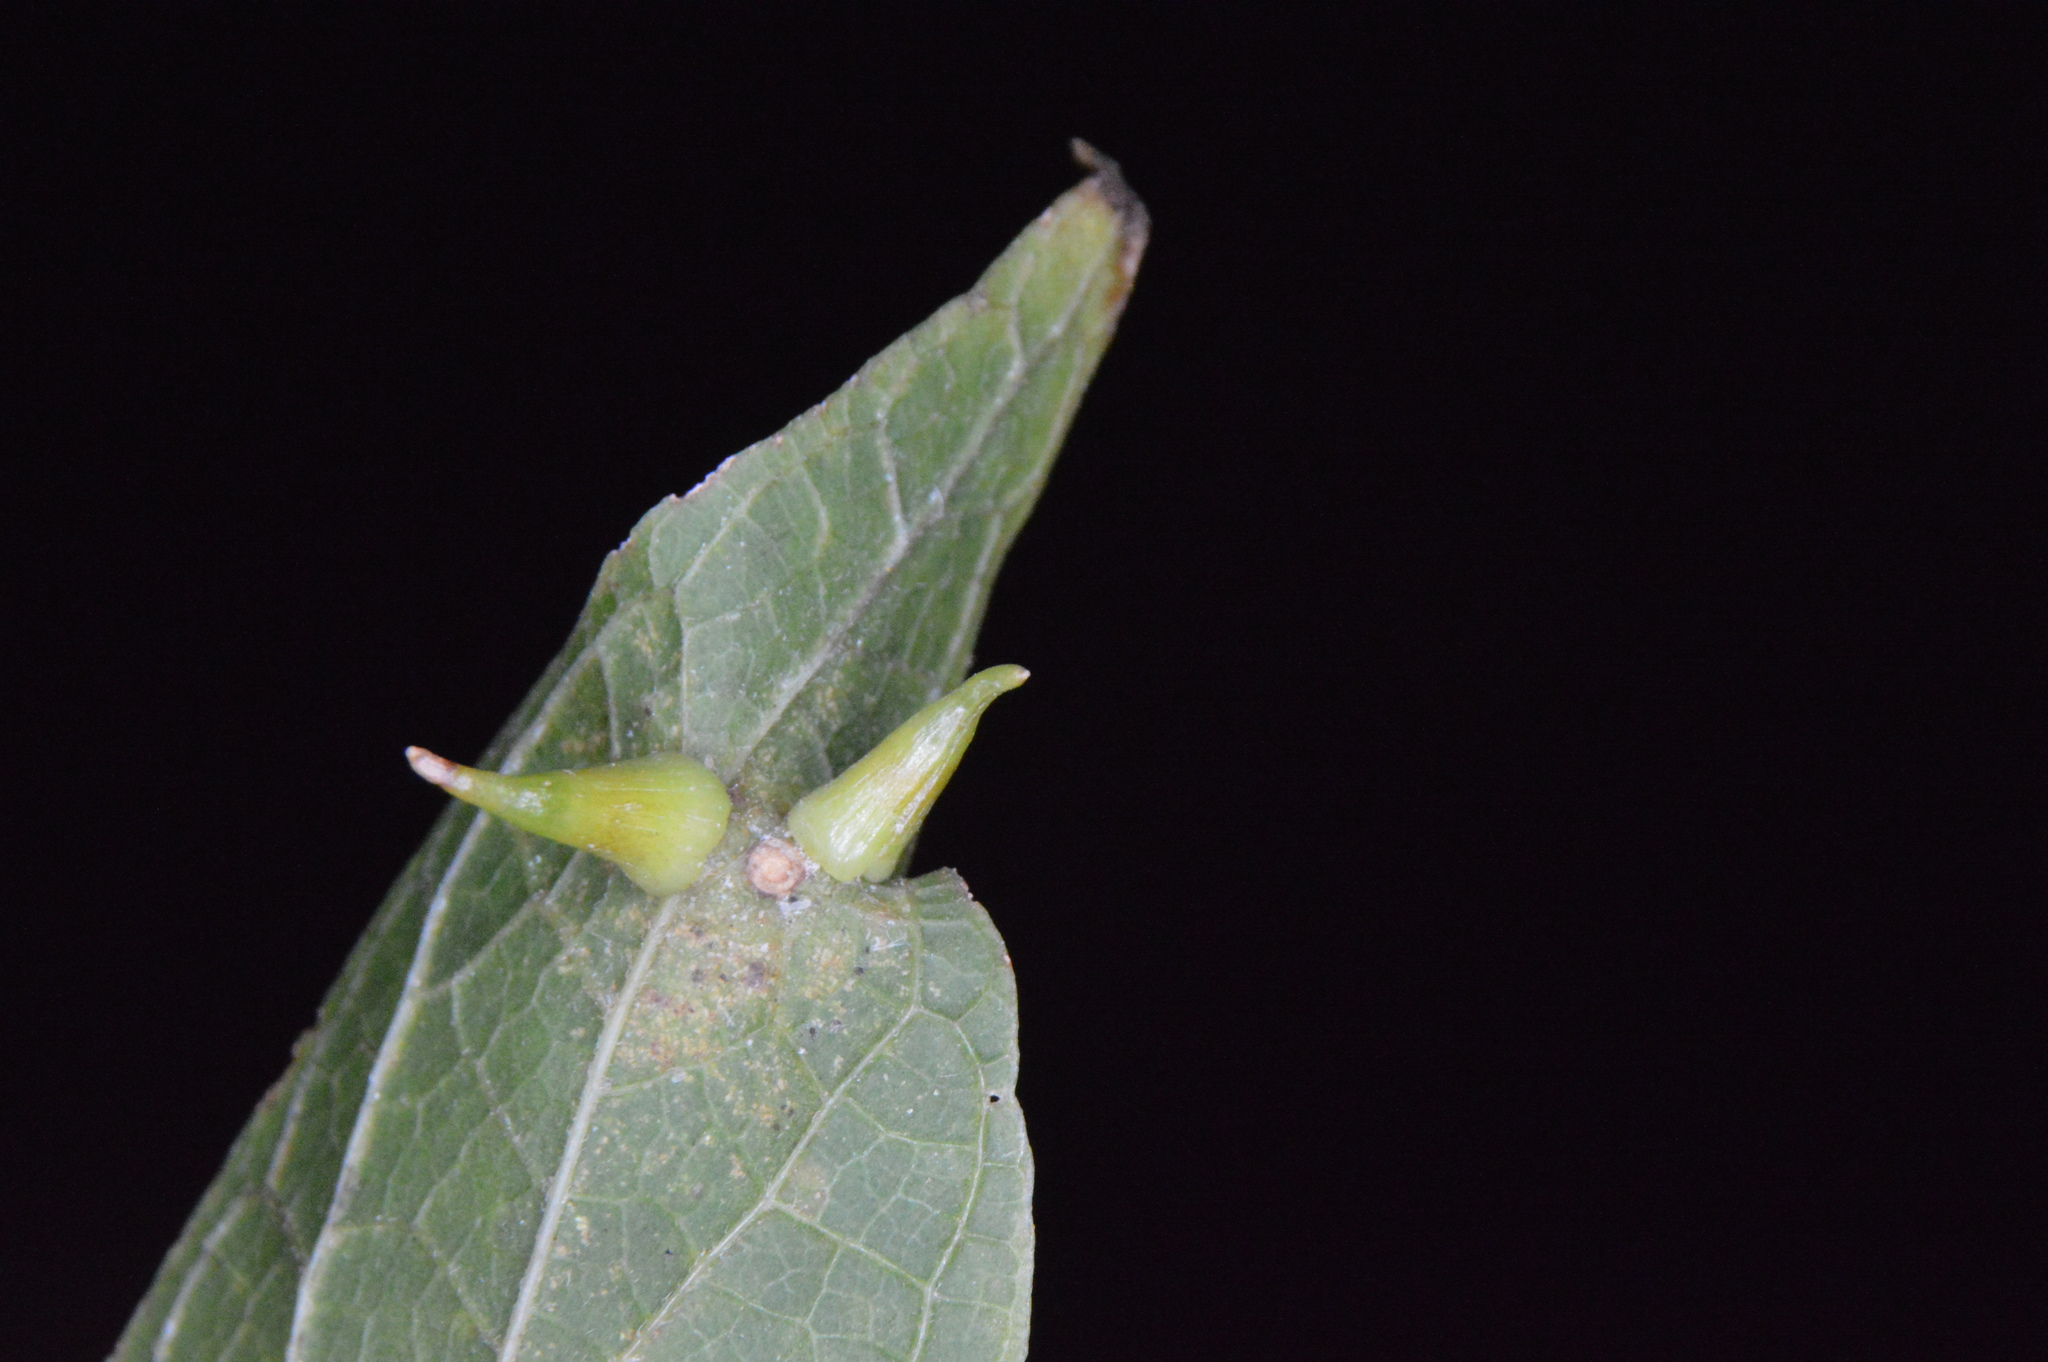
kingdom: Animalia
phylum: Arthropoda
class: Insecta
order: Diptera
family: Cecidomyiidae
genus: Celticecis
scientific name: Celticecis subulata
